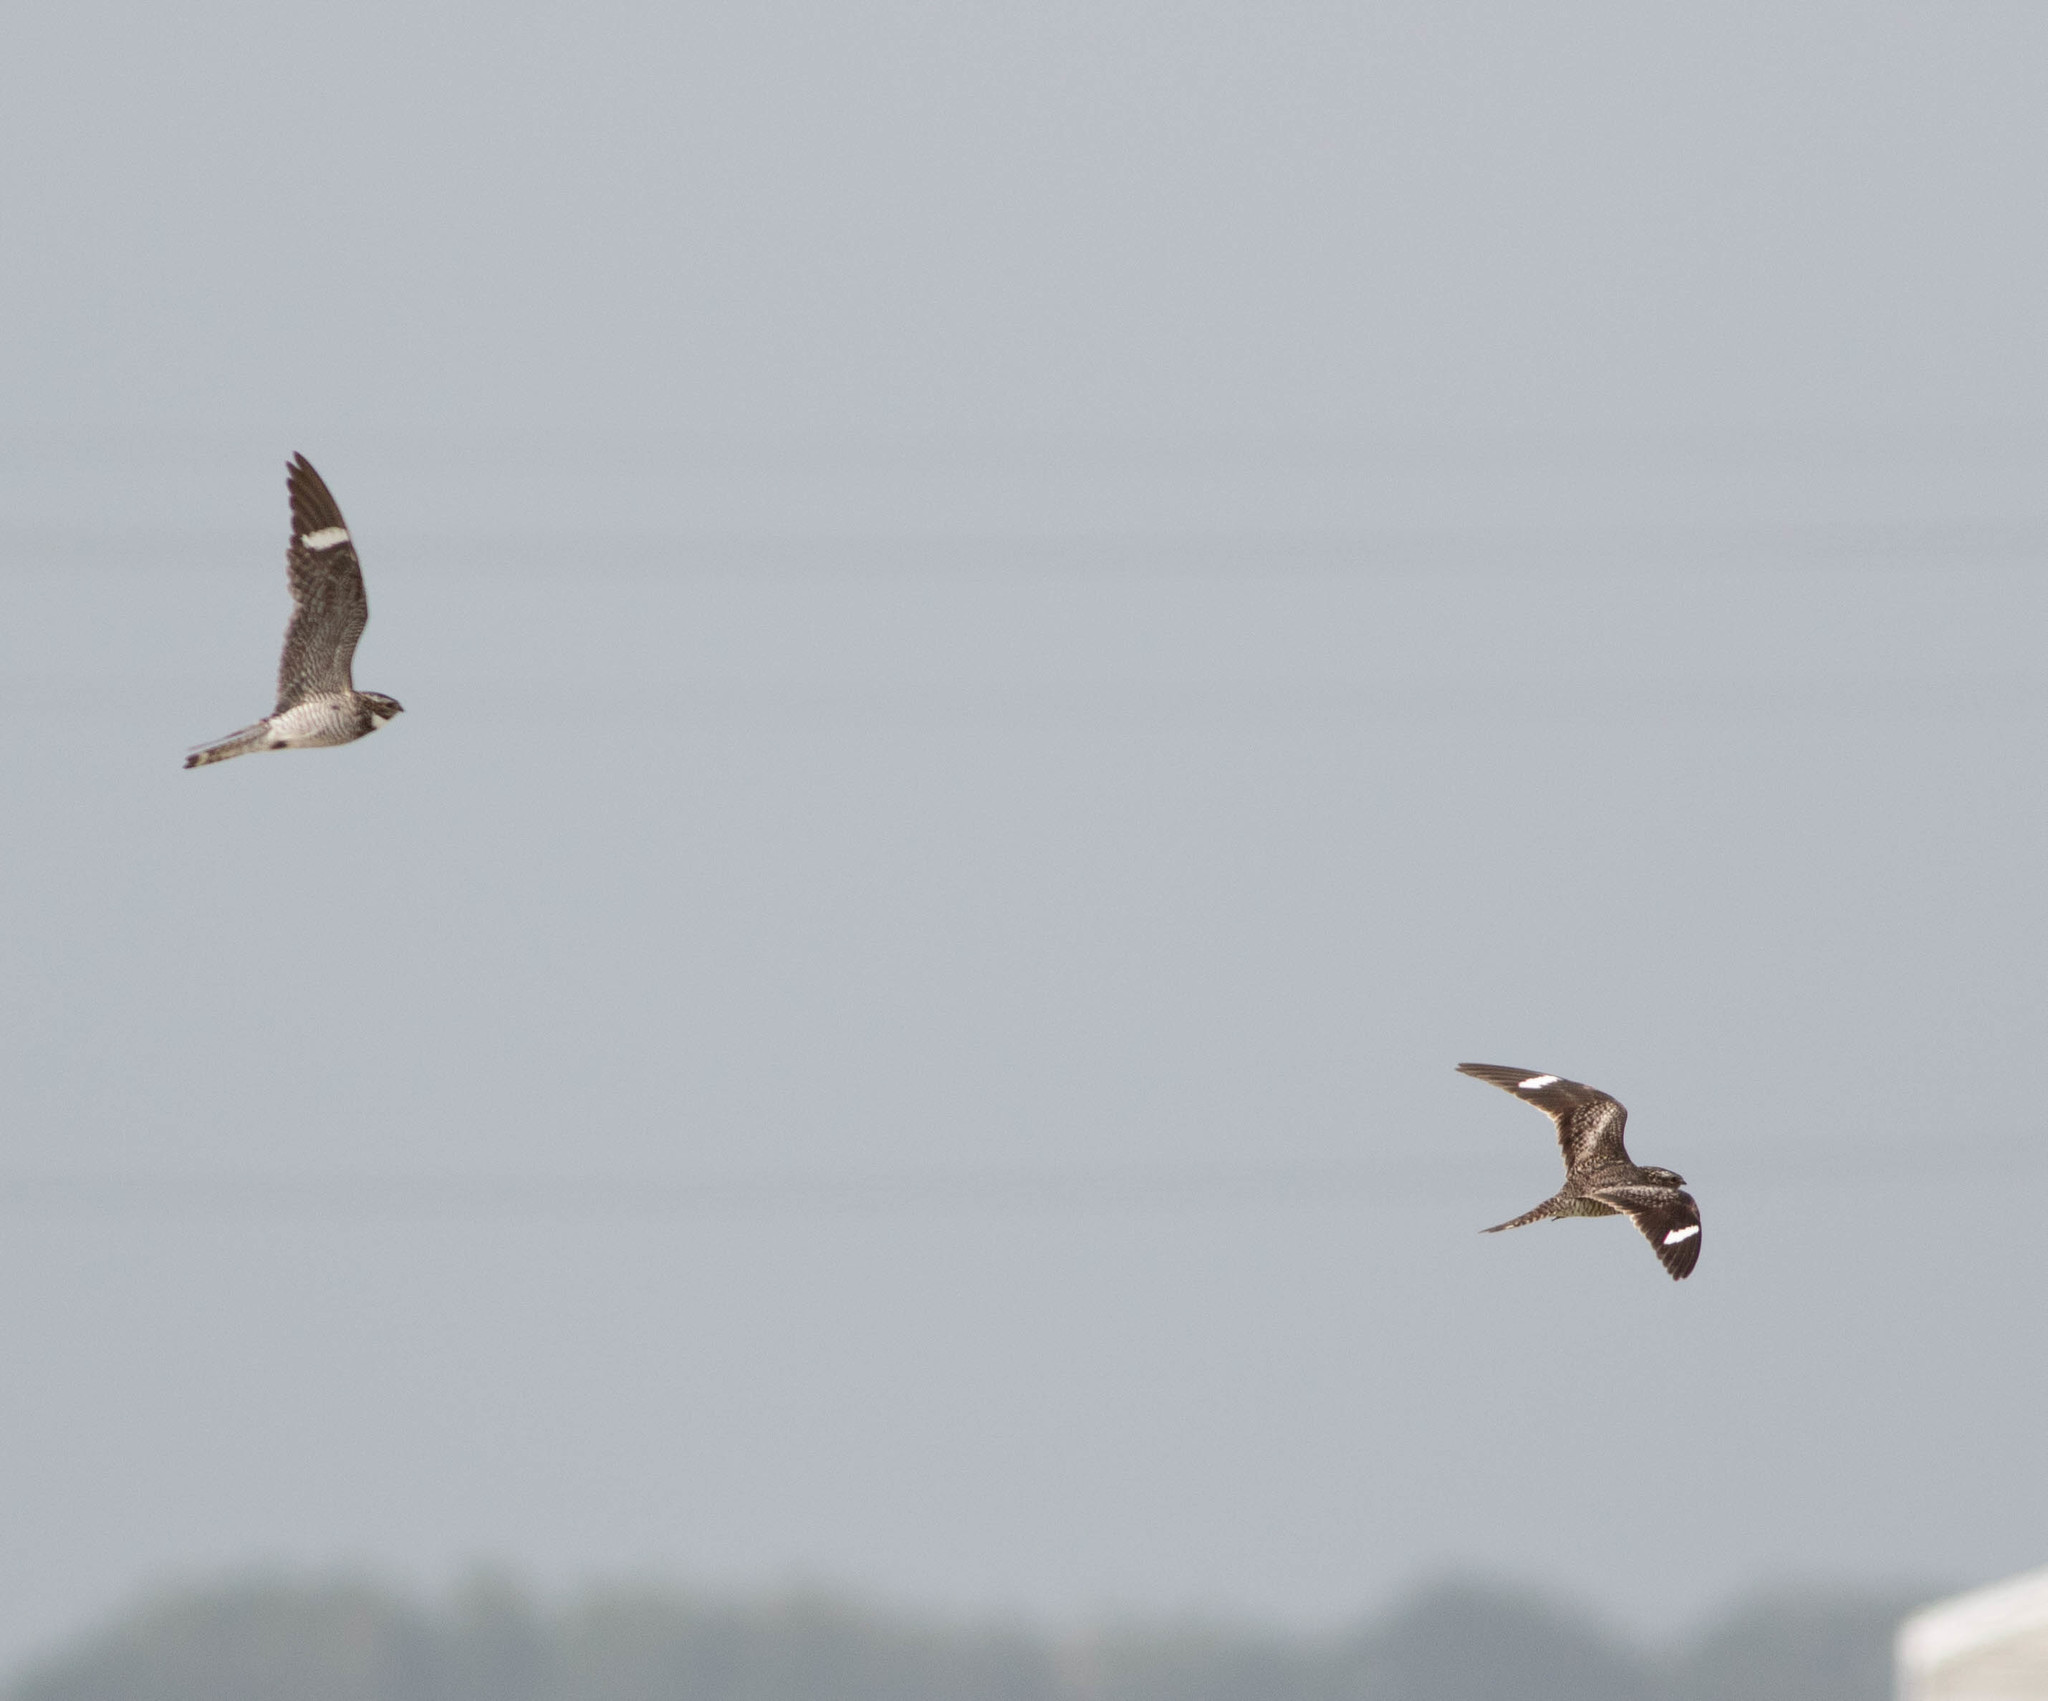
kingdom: Animalia
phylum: Chordata
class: Aves
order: Caprimulgiformes
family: Caprimulgidae
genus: Chordeiles
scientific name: Chordeiles minor
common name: Common nighthawk
